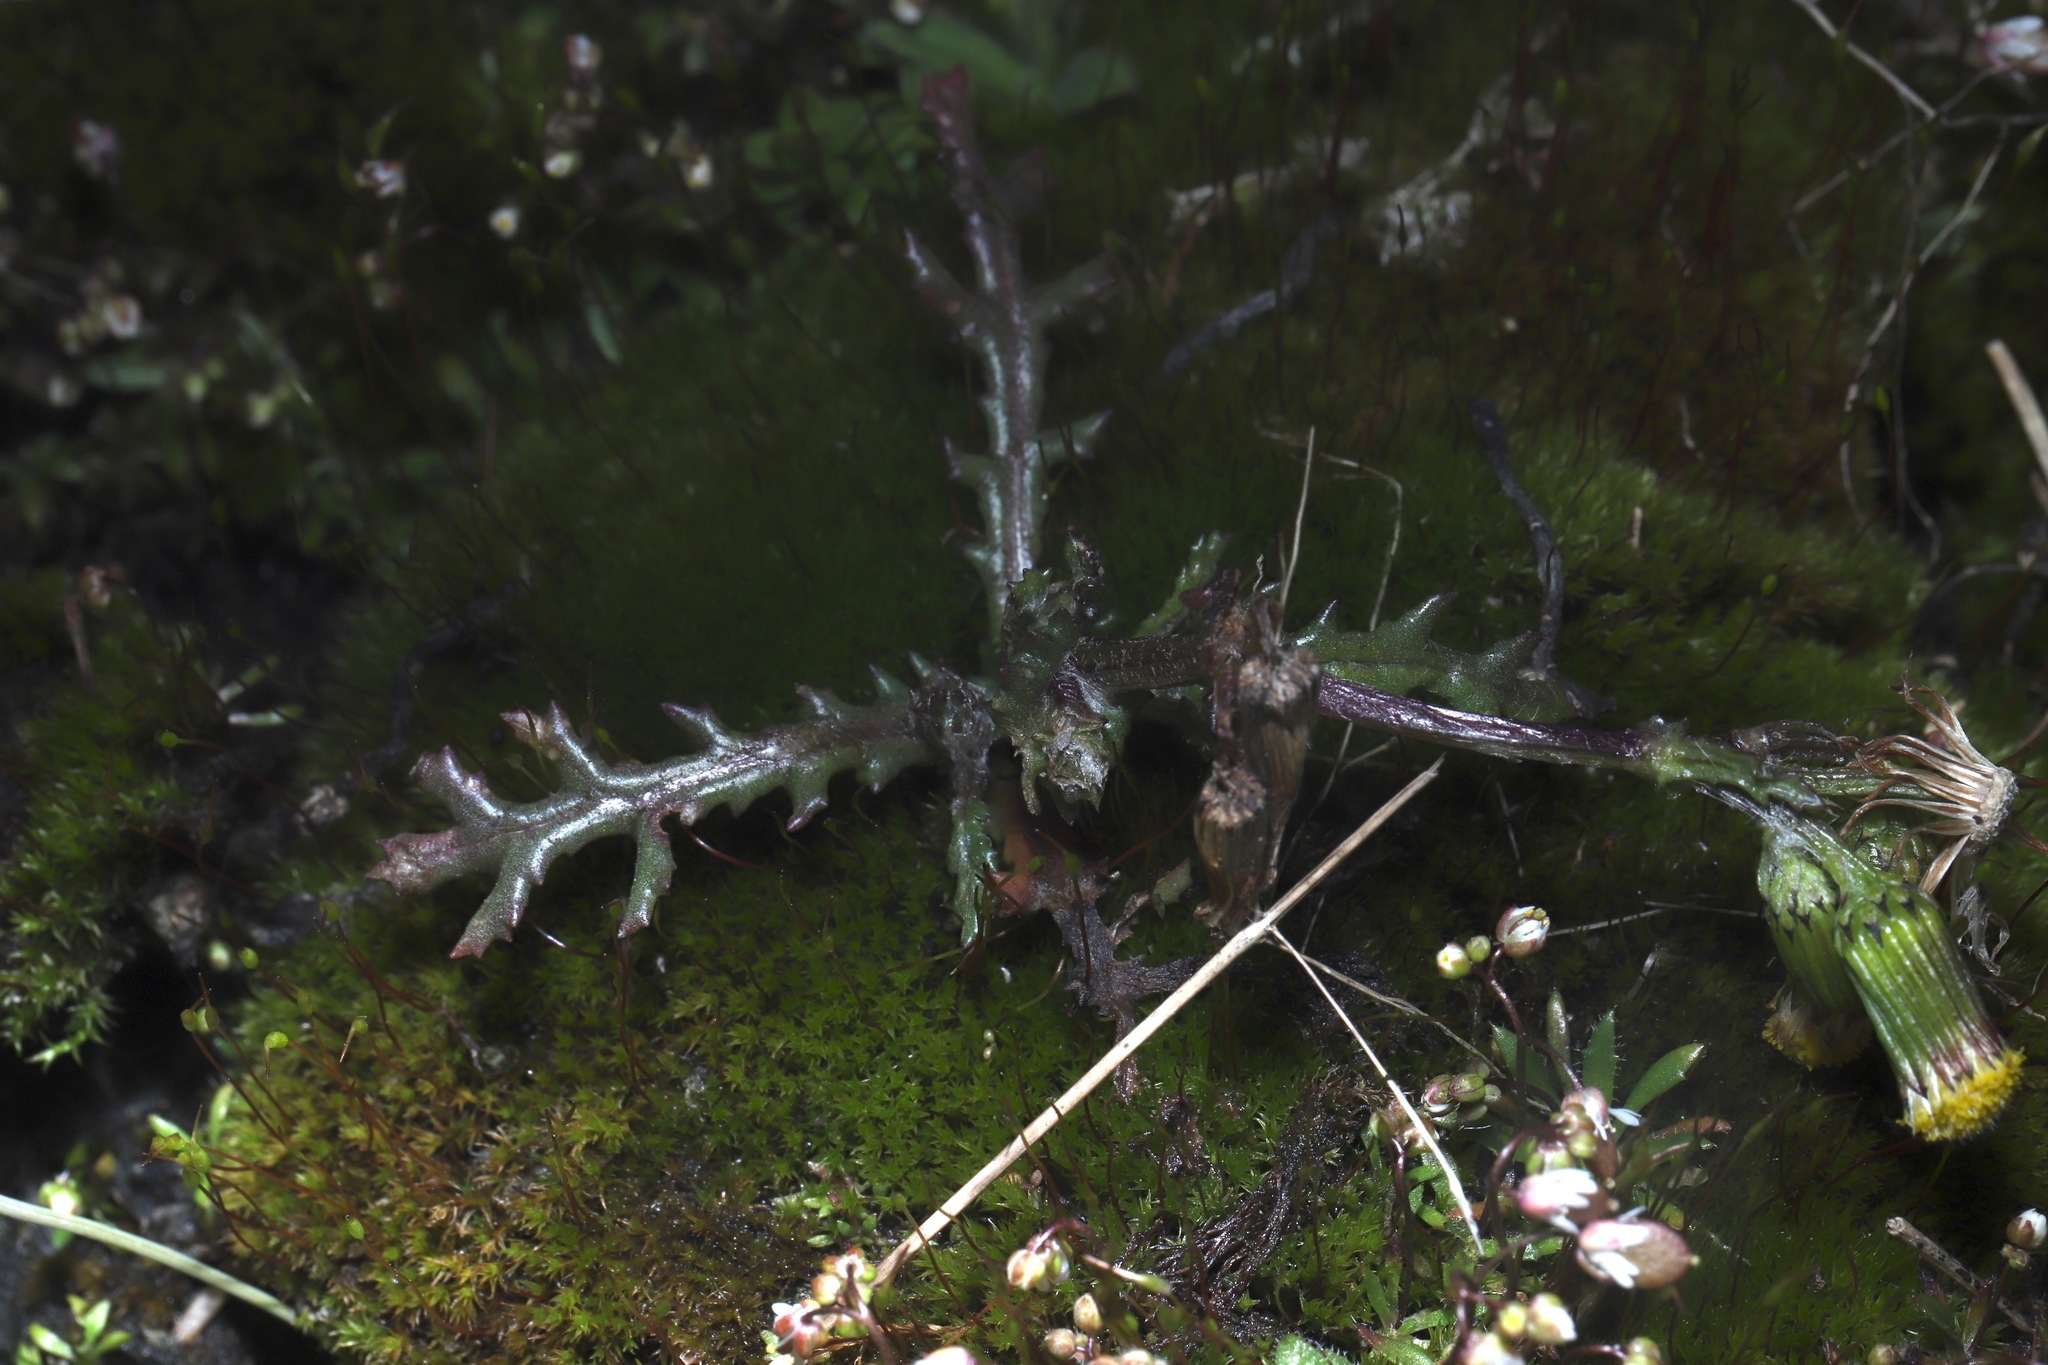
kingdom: Plantae
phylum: Tracheophyta
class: Magnoliopsida
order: Asterales
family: Asteraceae
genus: Senecio
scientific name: Senecio vulgaris
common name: Old-man-in-the-spring
